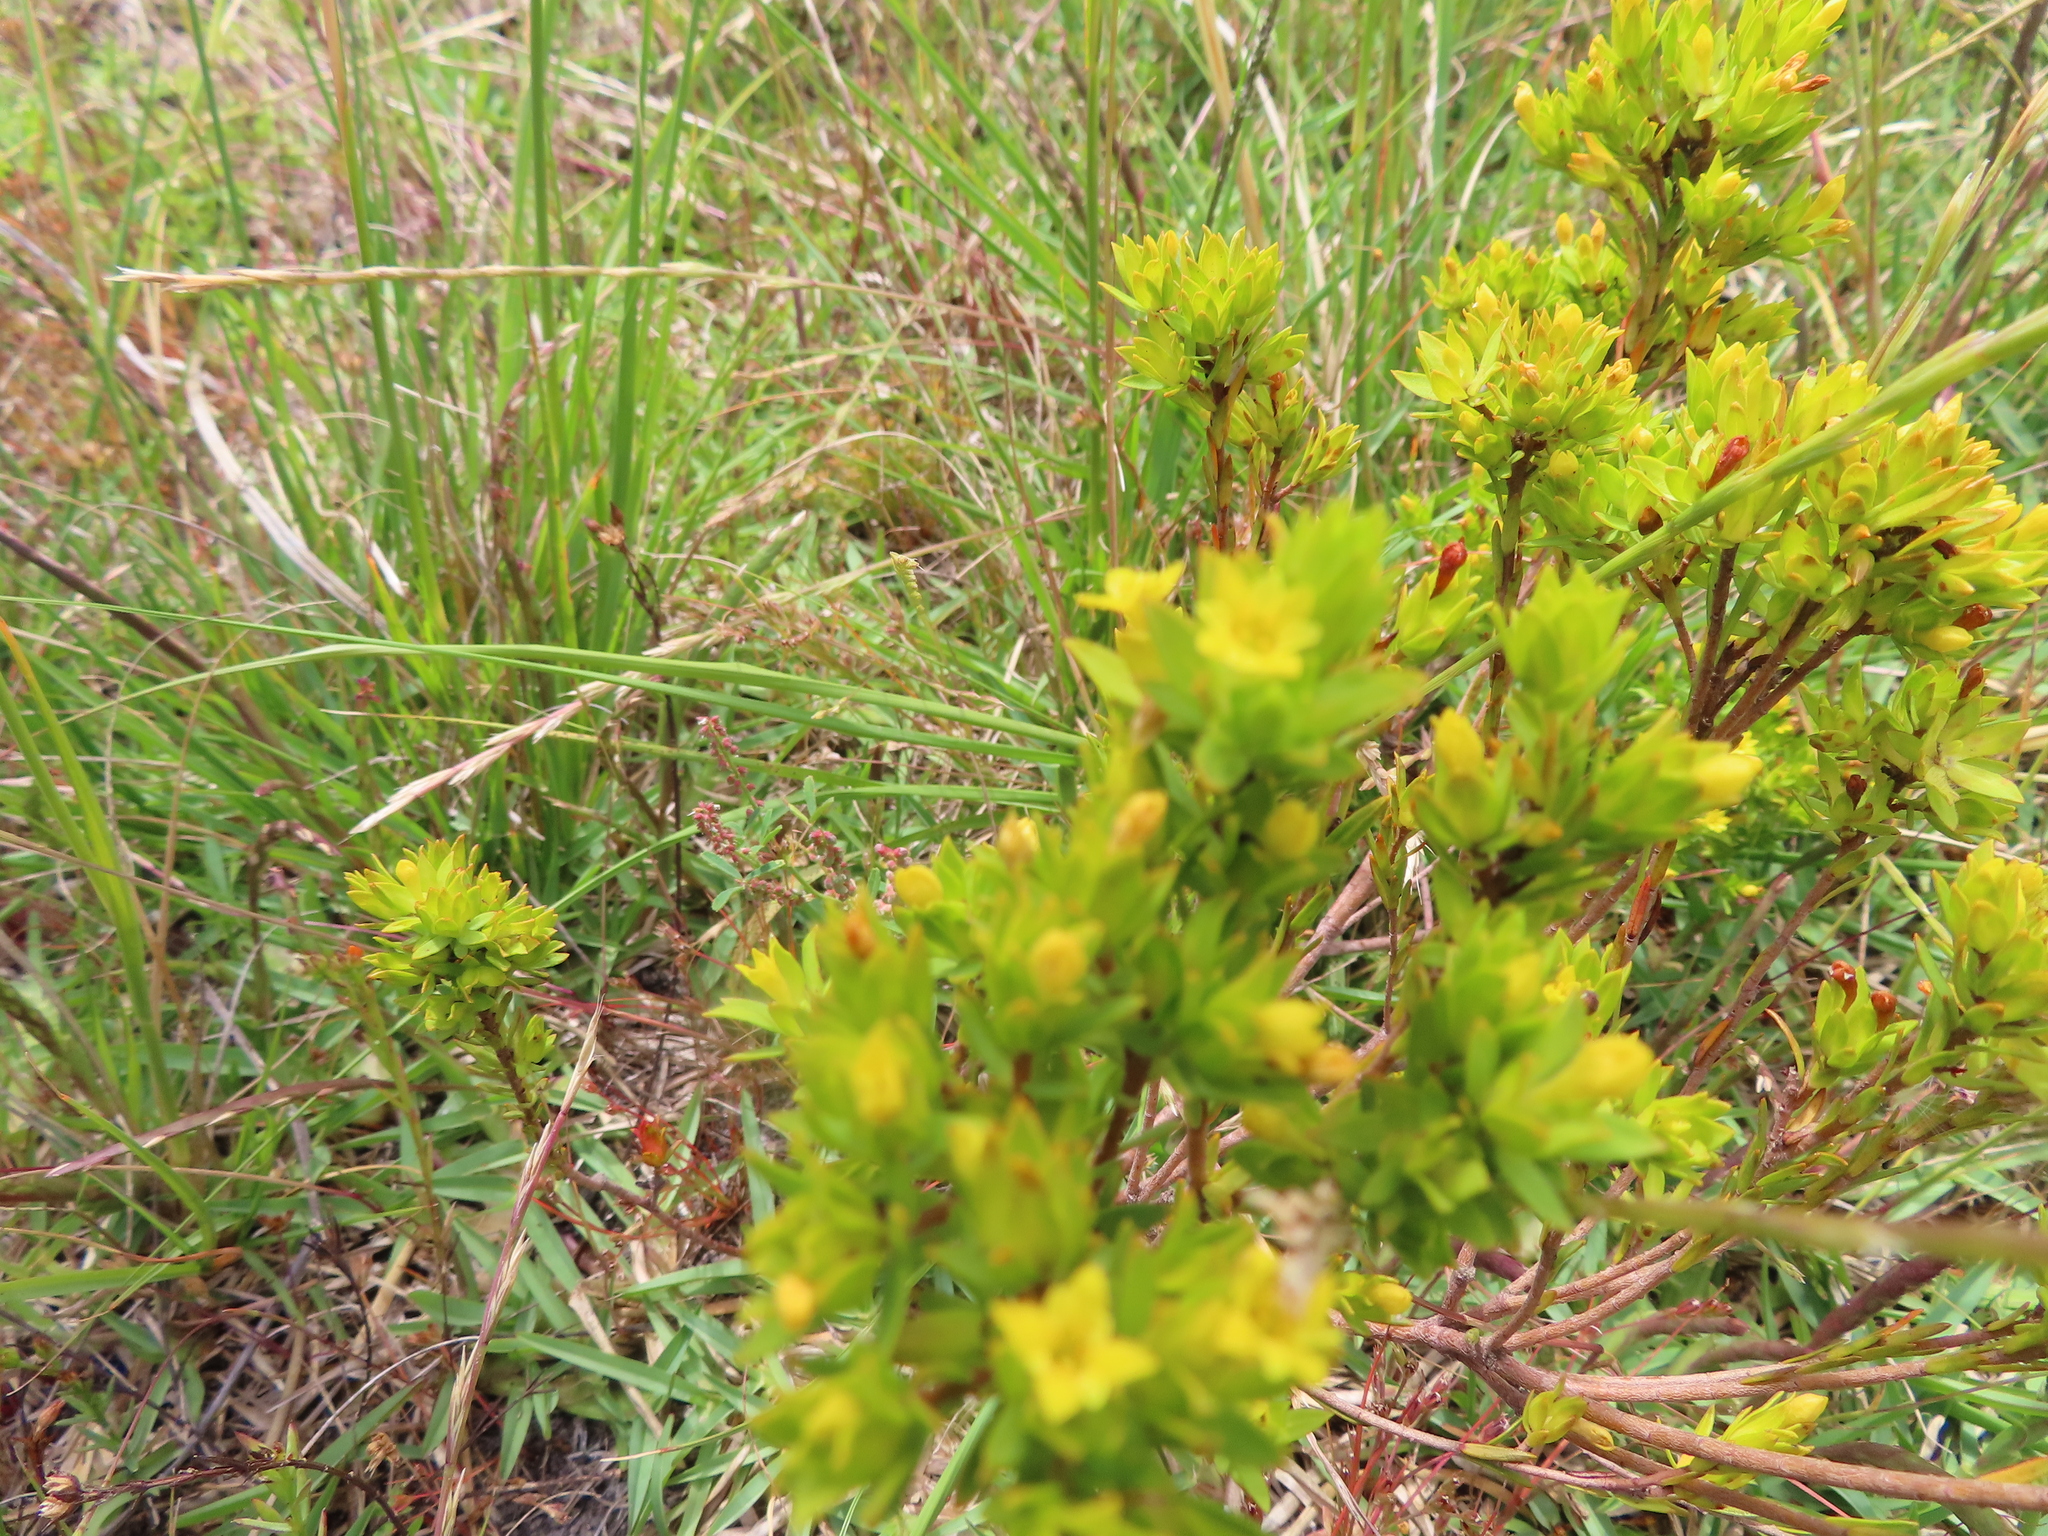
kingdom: Plantae
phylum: Tracheophyta
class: Magnoliopsida
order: Malvales
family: Thymelaeaceae
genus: Gnidia
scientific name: Gnidia juniperifolia
